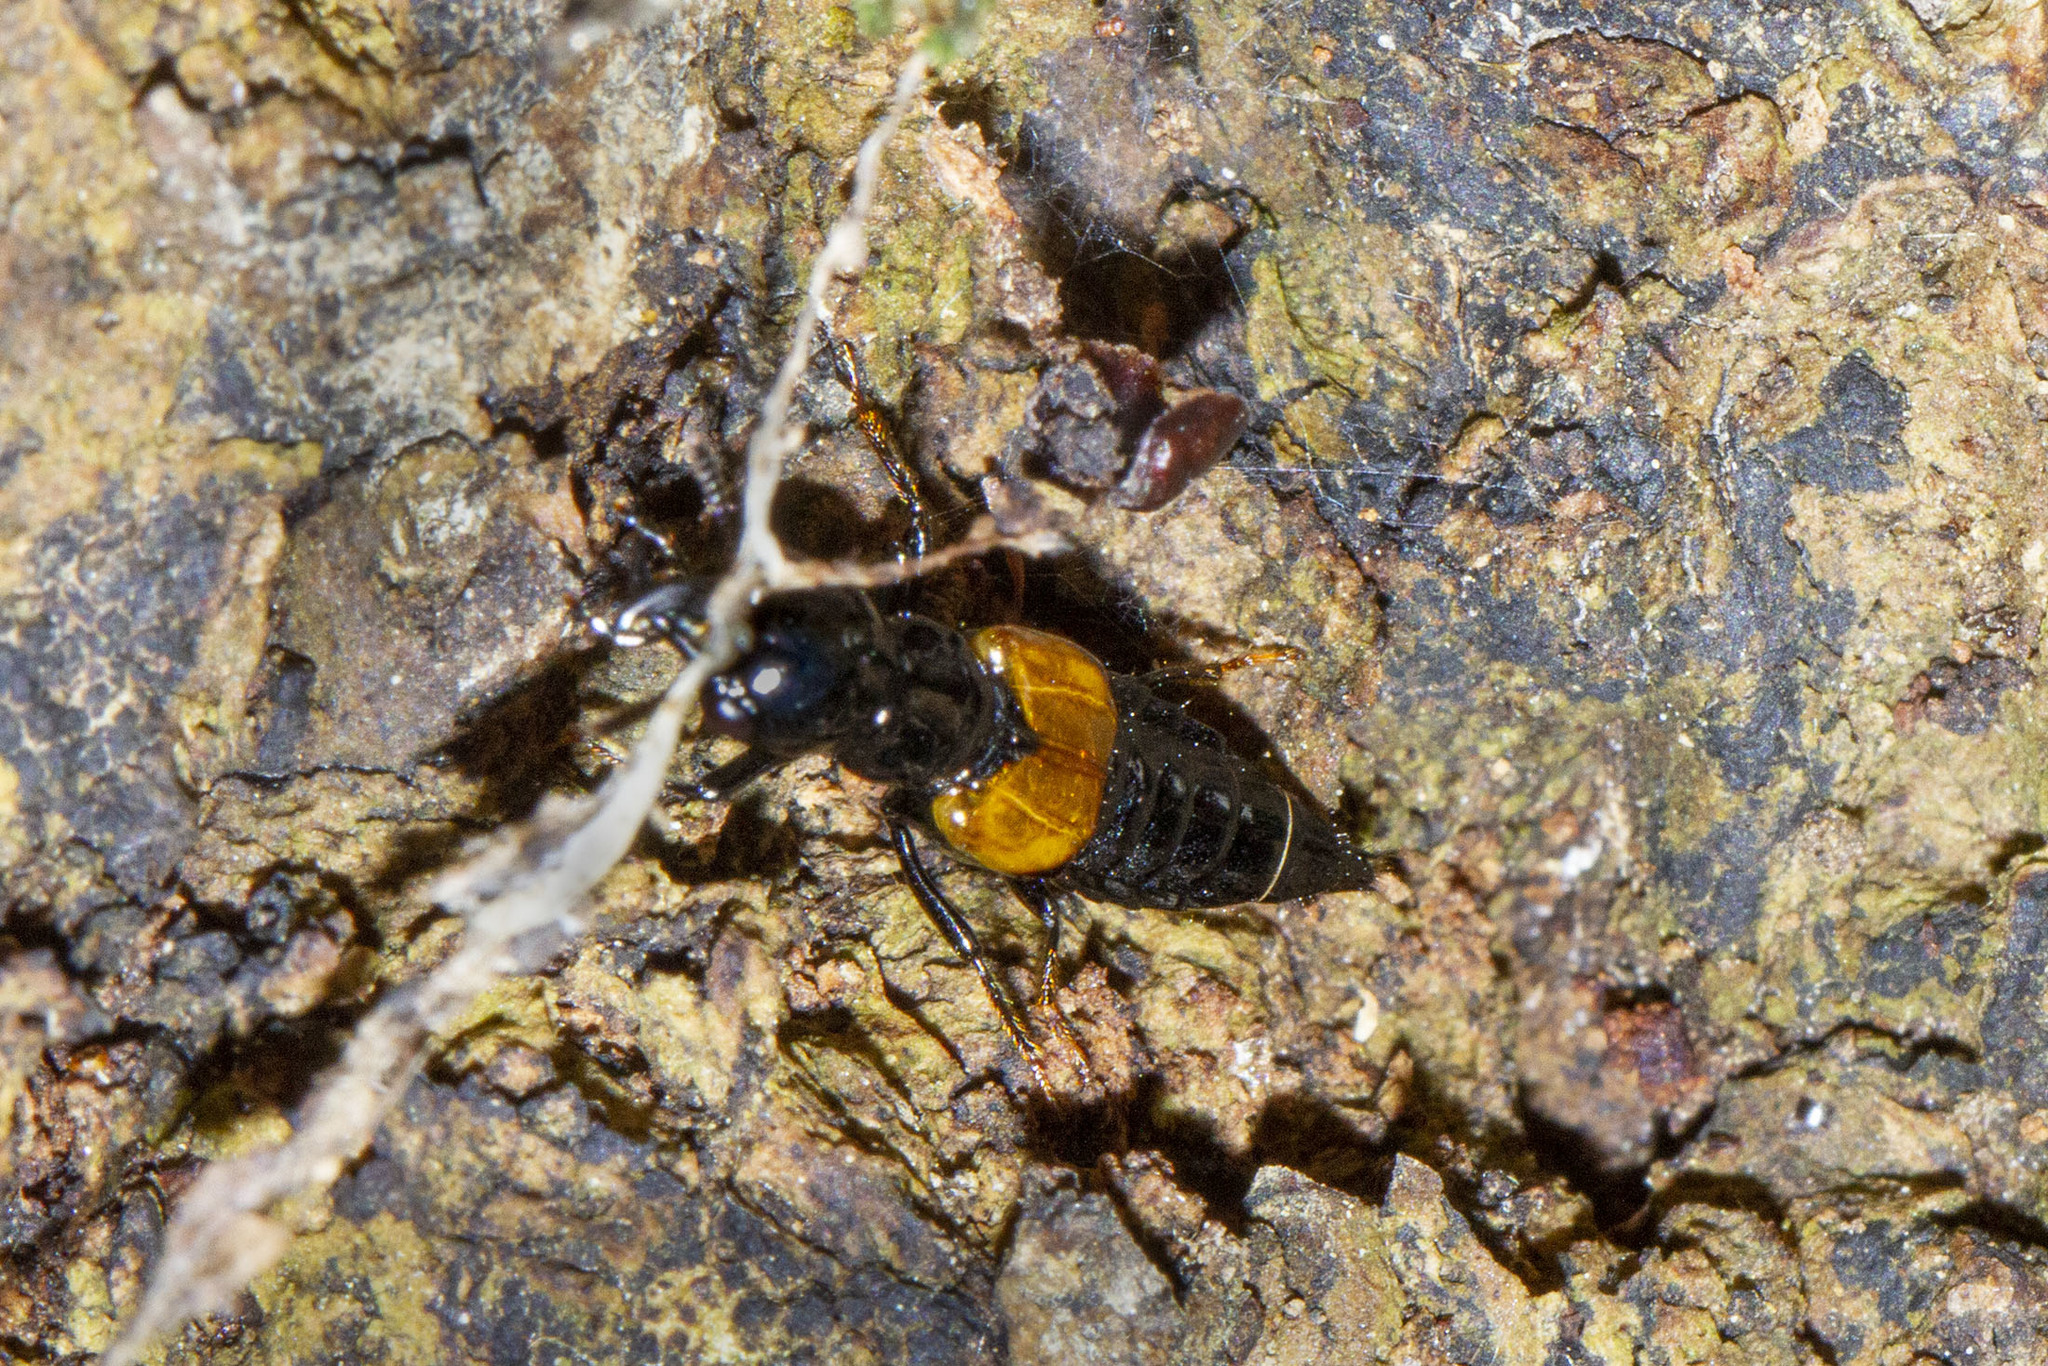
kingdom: Animalia
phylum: Arthropoda
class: Insecta
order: Coleoptera
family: Staphylinidae
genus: Oxyporus
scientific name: Oxyporus rufipennis
